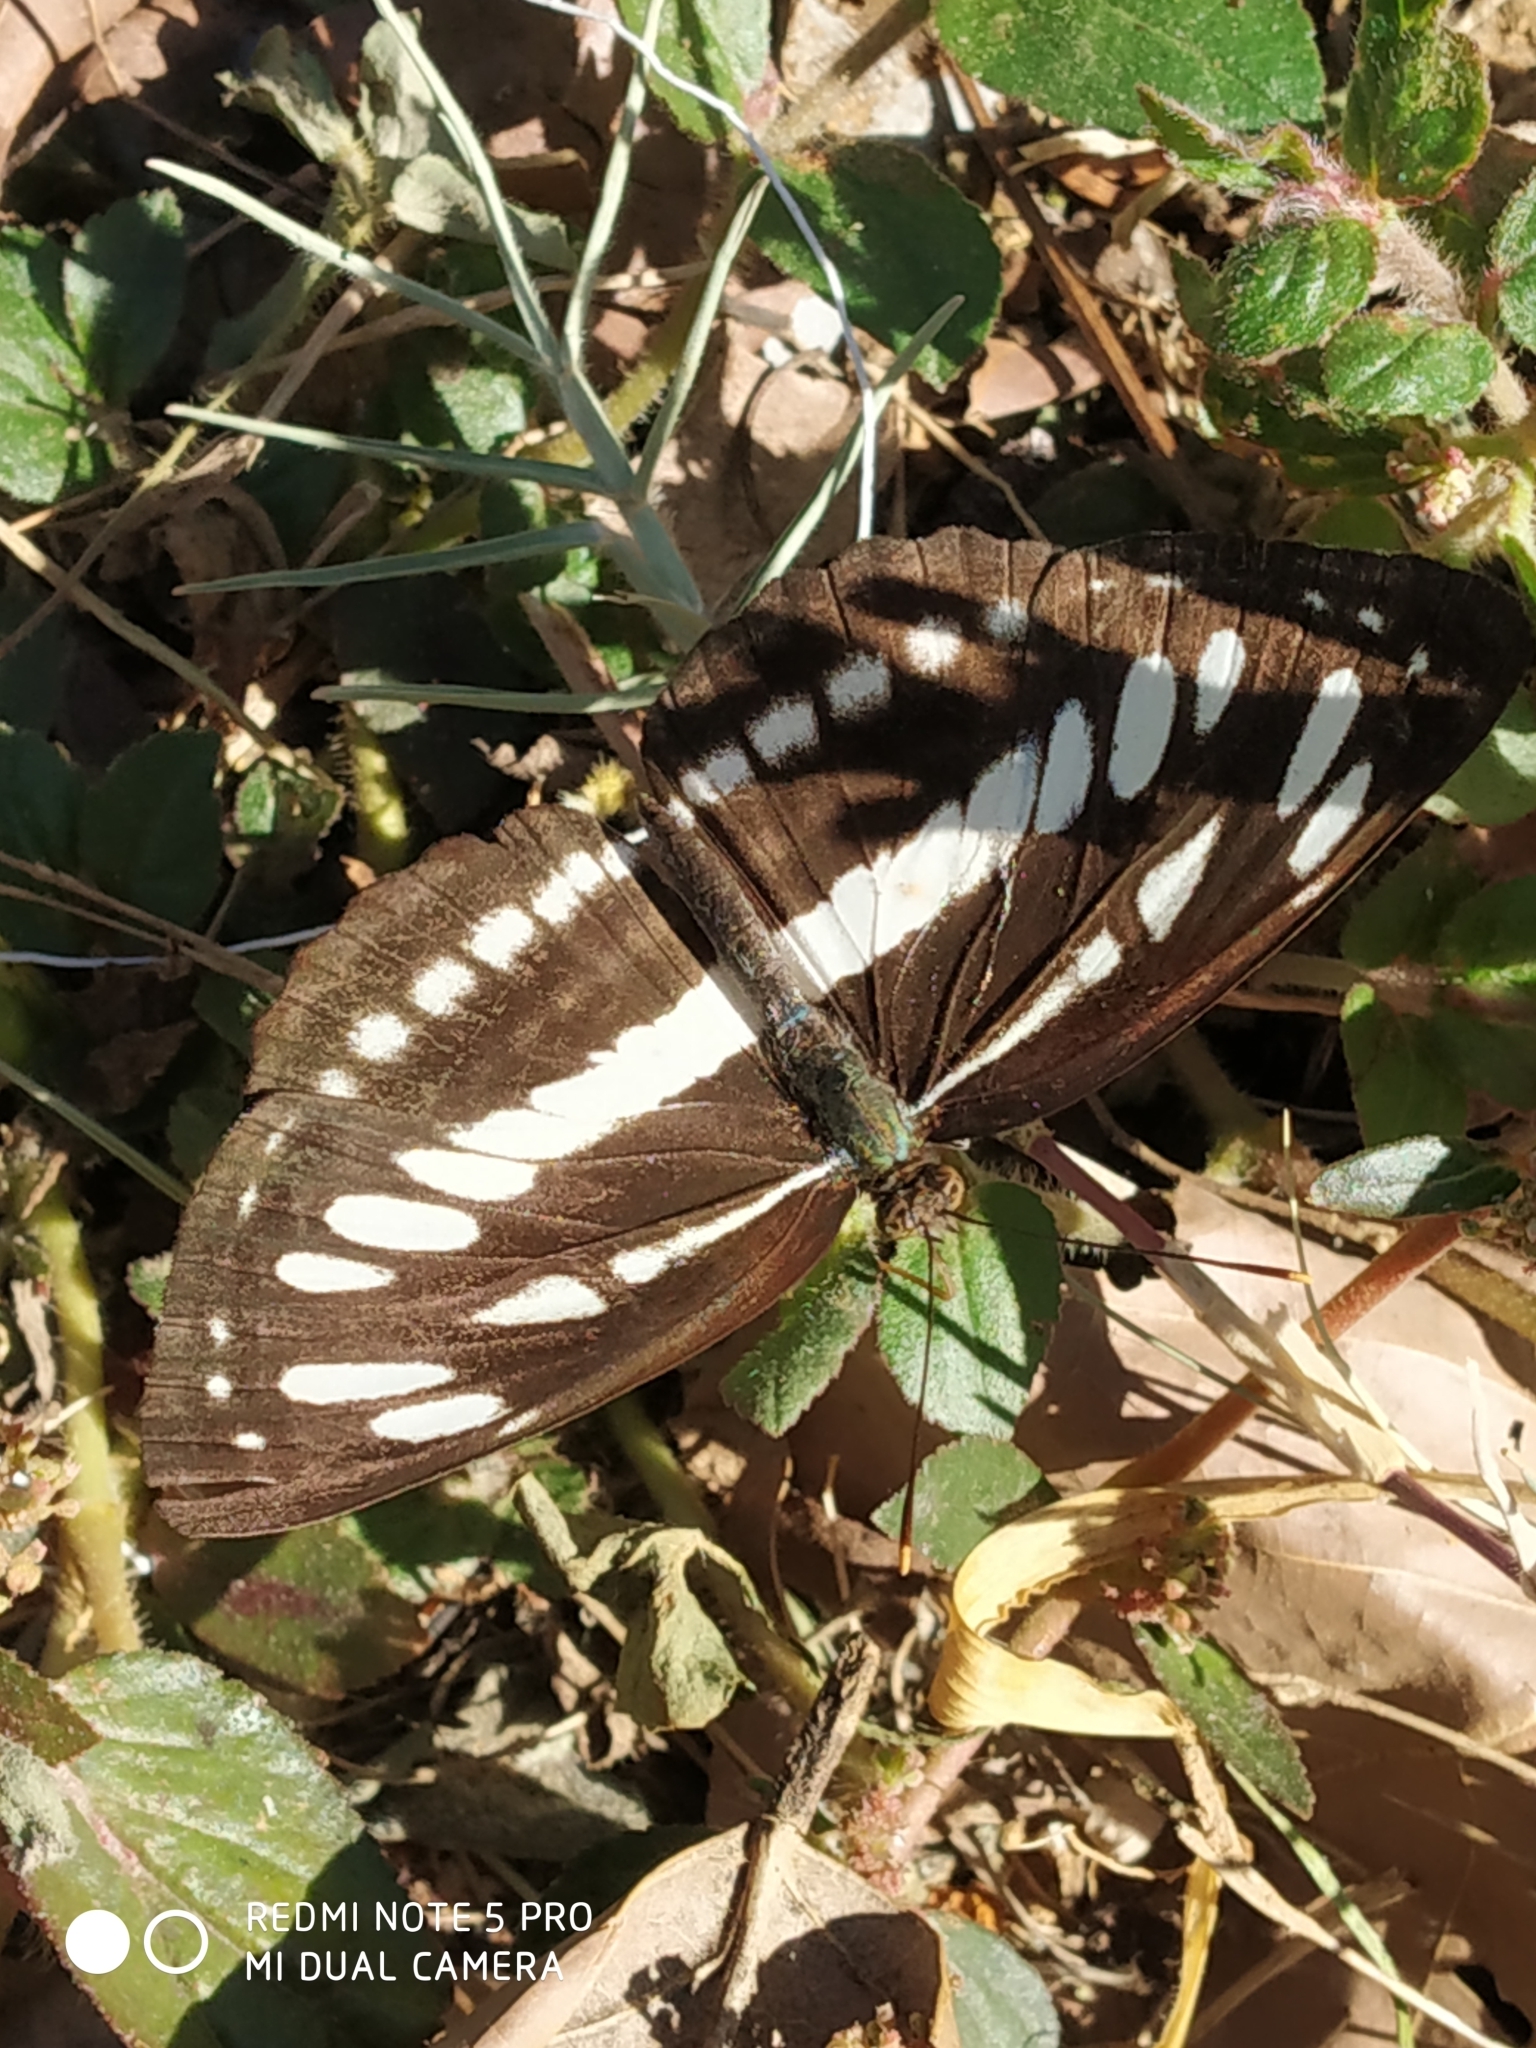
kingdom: Animalia
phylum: Arthropoda
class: Insecta
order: Lepidoptera
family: Nymphalidae
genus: Neptis
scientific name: Neptis hylas
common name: Common sailer
